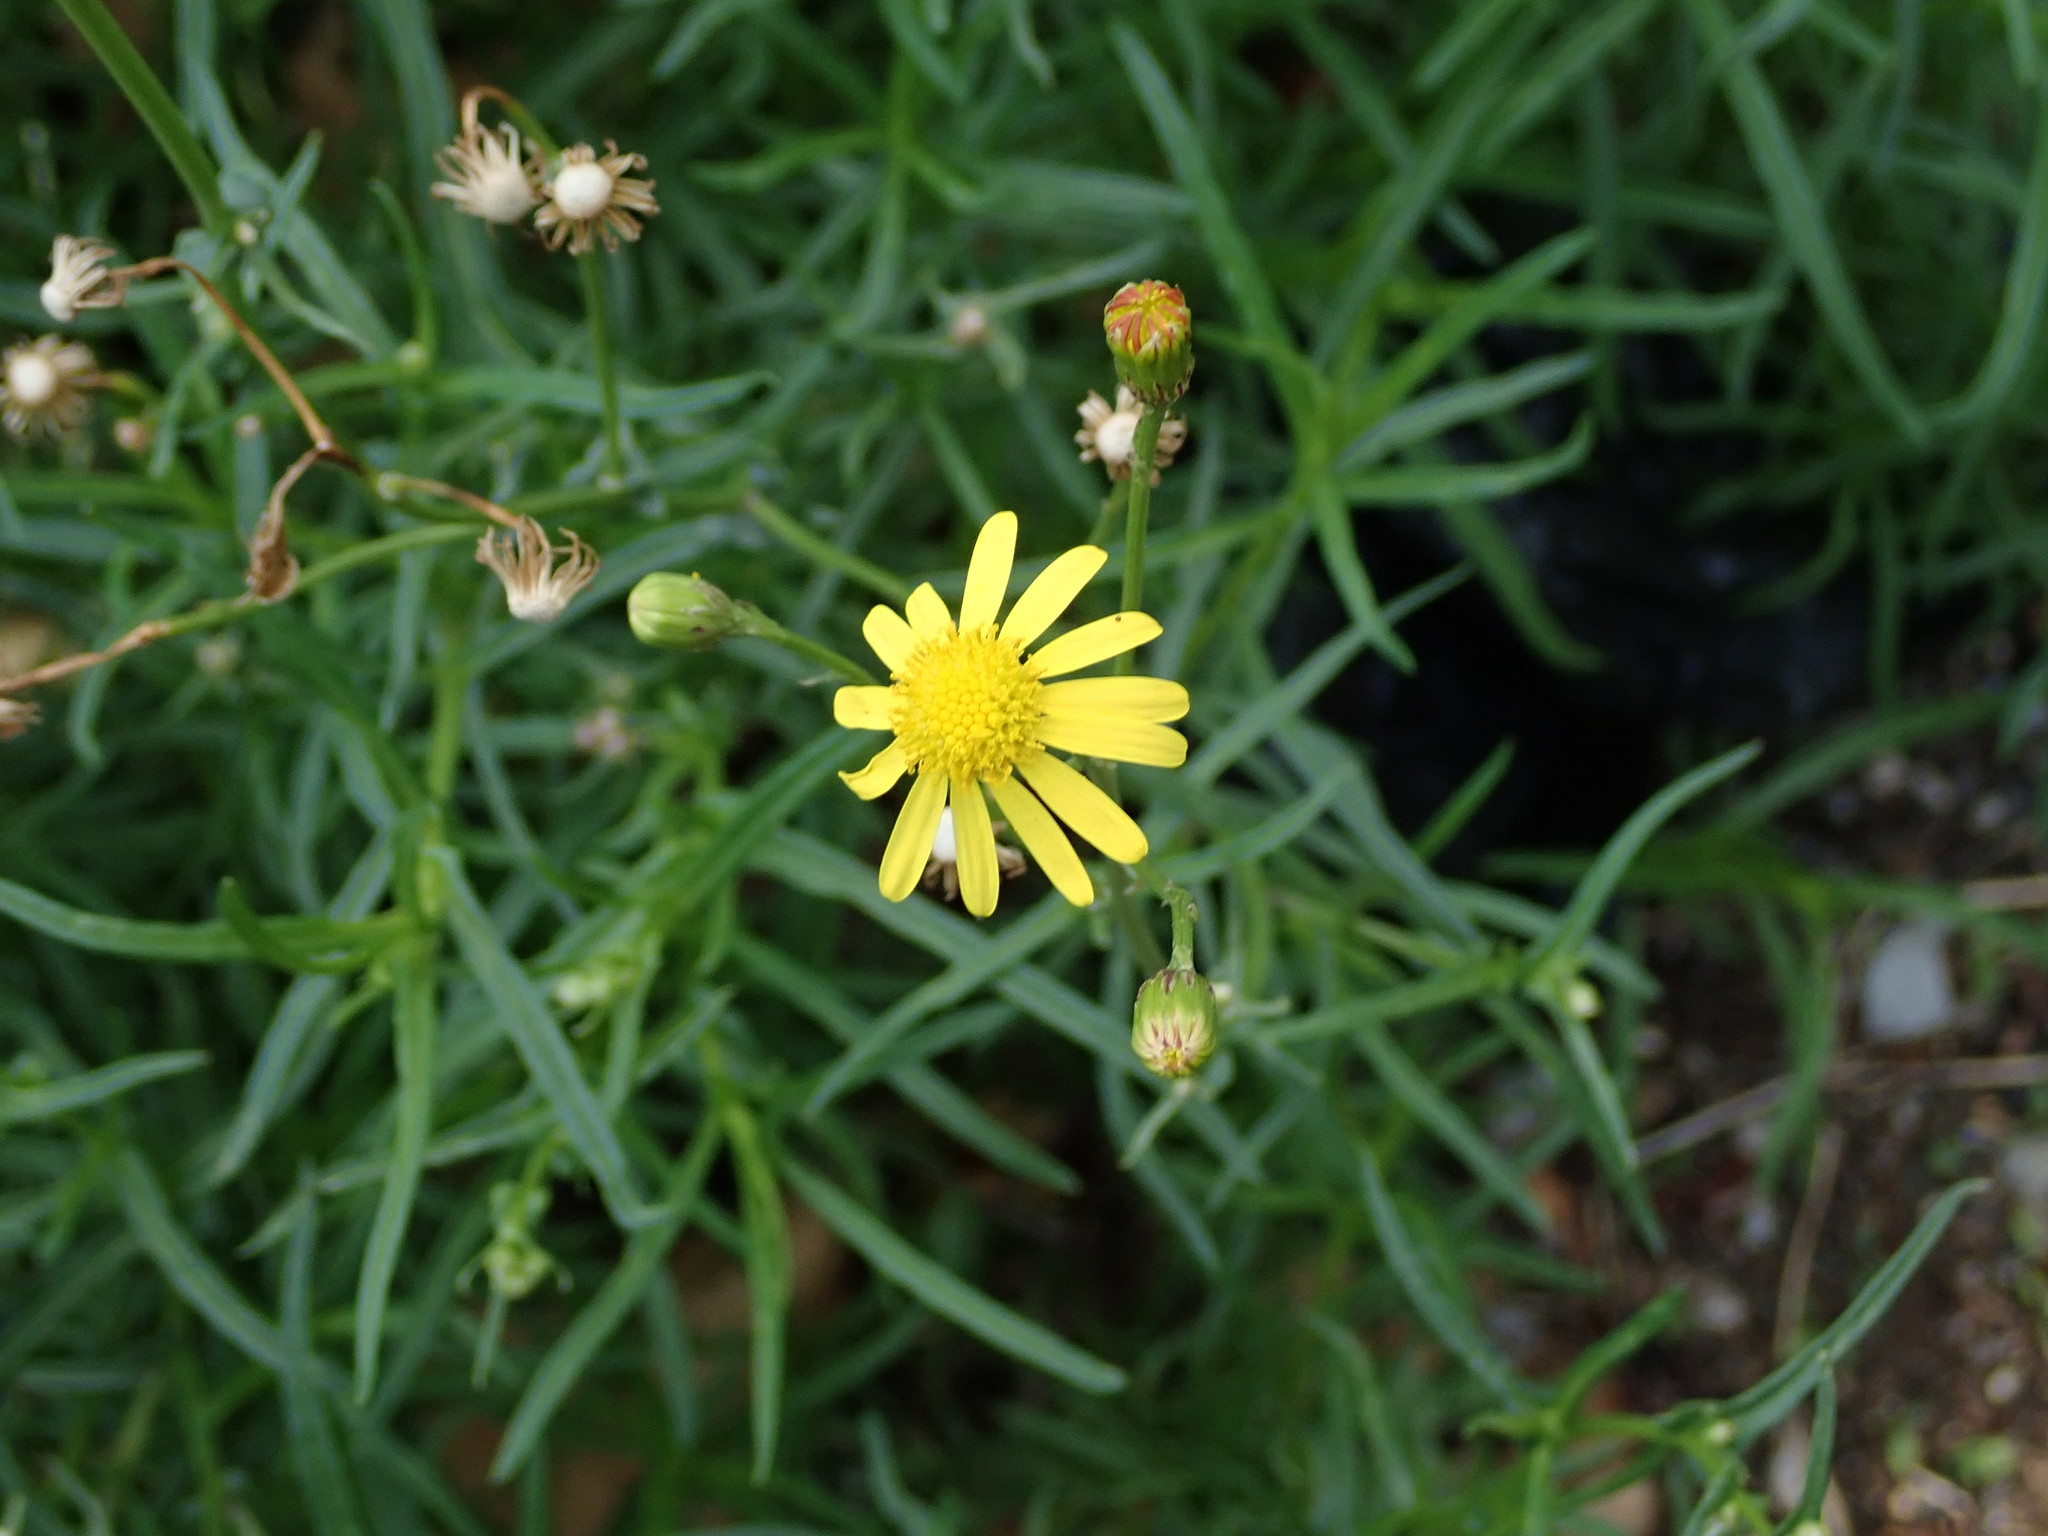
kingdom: Plantae
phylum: Tracheophyta
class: Magnoliopsida
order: Asterales
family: Asteraceae
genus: Senecio
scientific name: Senecio inaequidens
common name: Narrow-leaved ragwort
